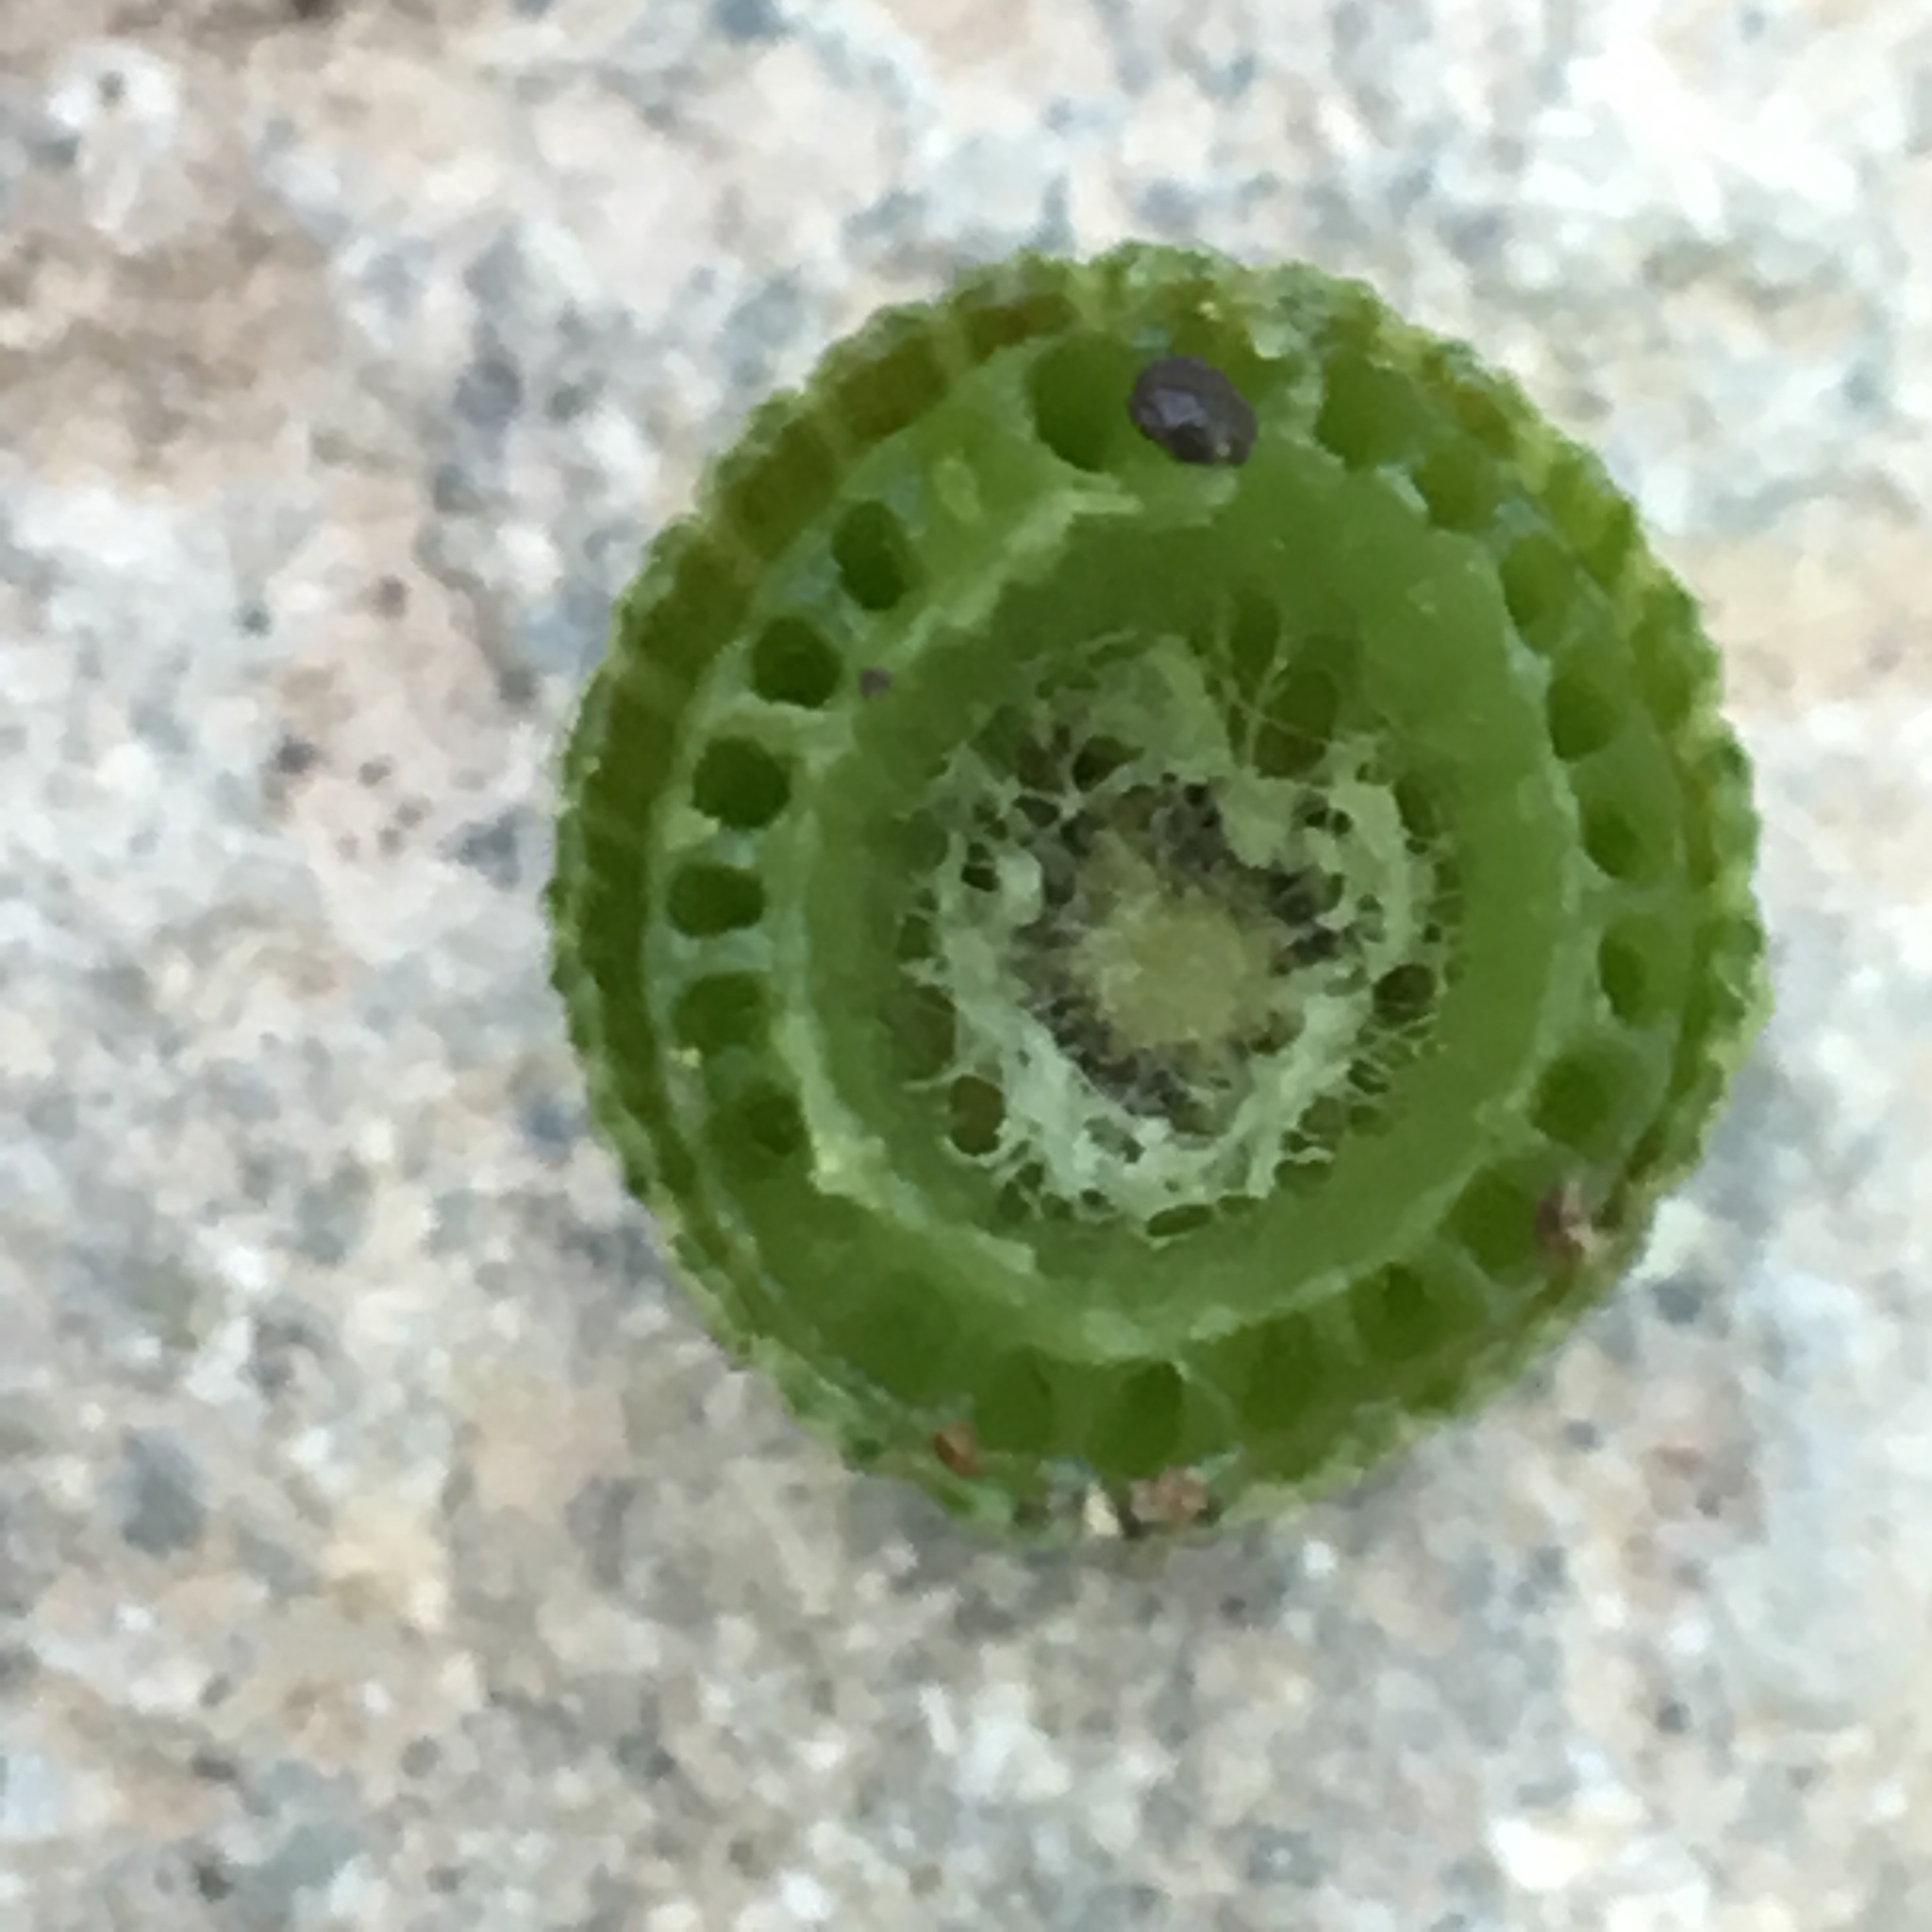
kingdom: Plantae
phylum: Tracheophyta
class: Polypodiopsida
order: Equisetales
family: Equisetaceae
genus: Equisetum
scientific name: Equisetum braunii
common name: Braun's horsetail
